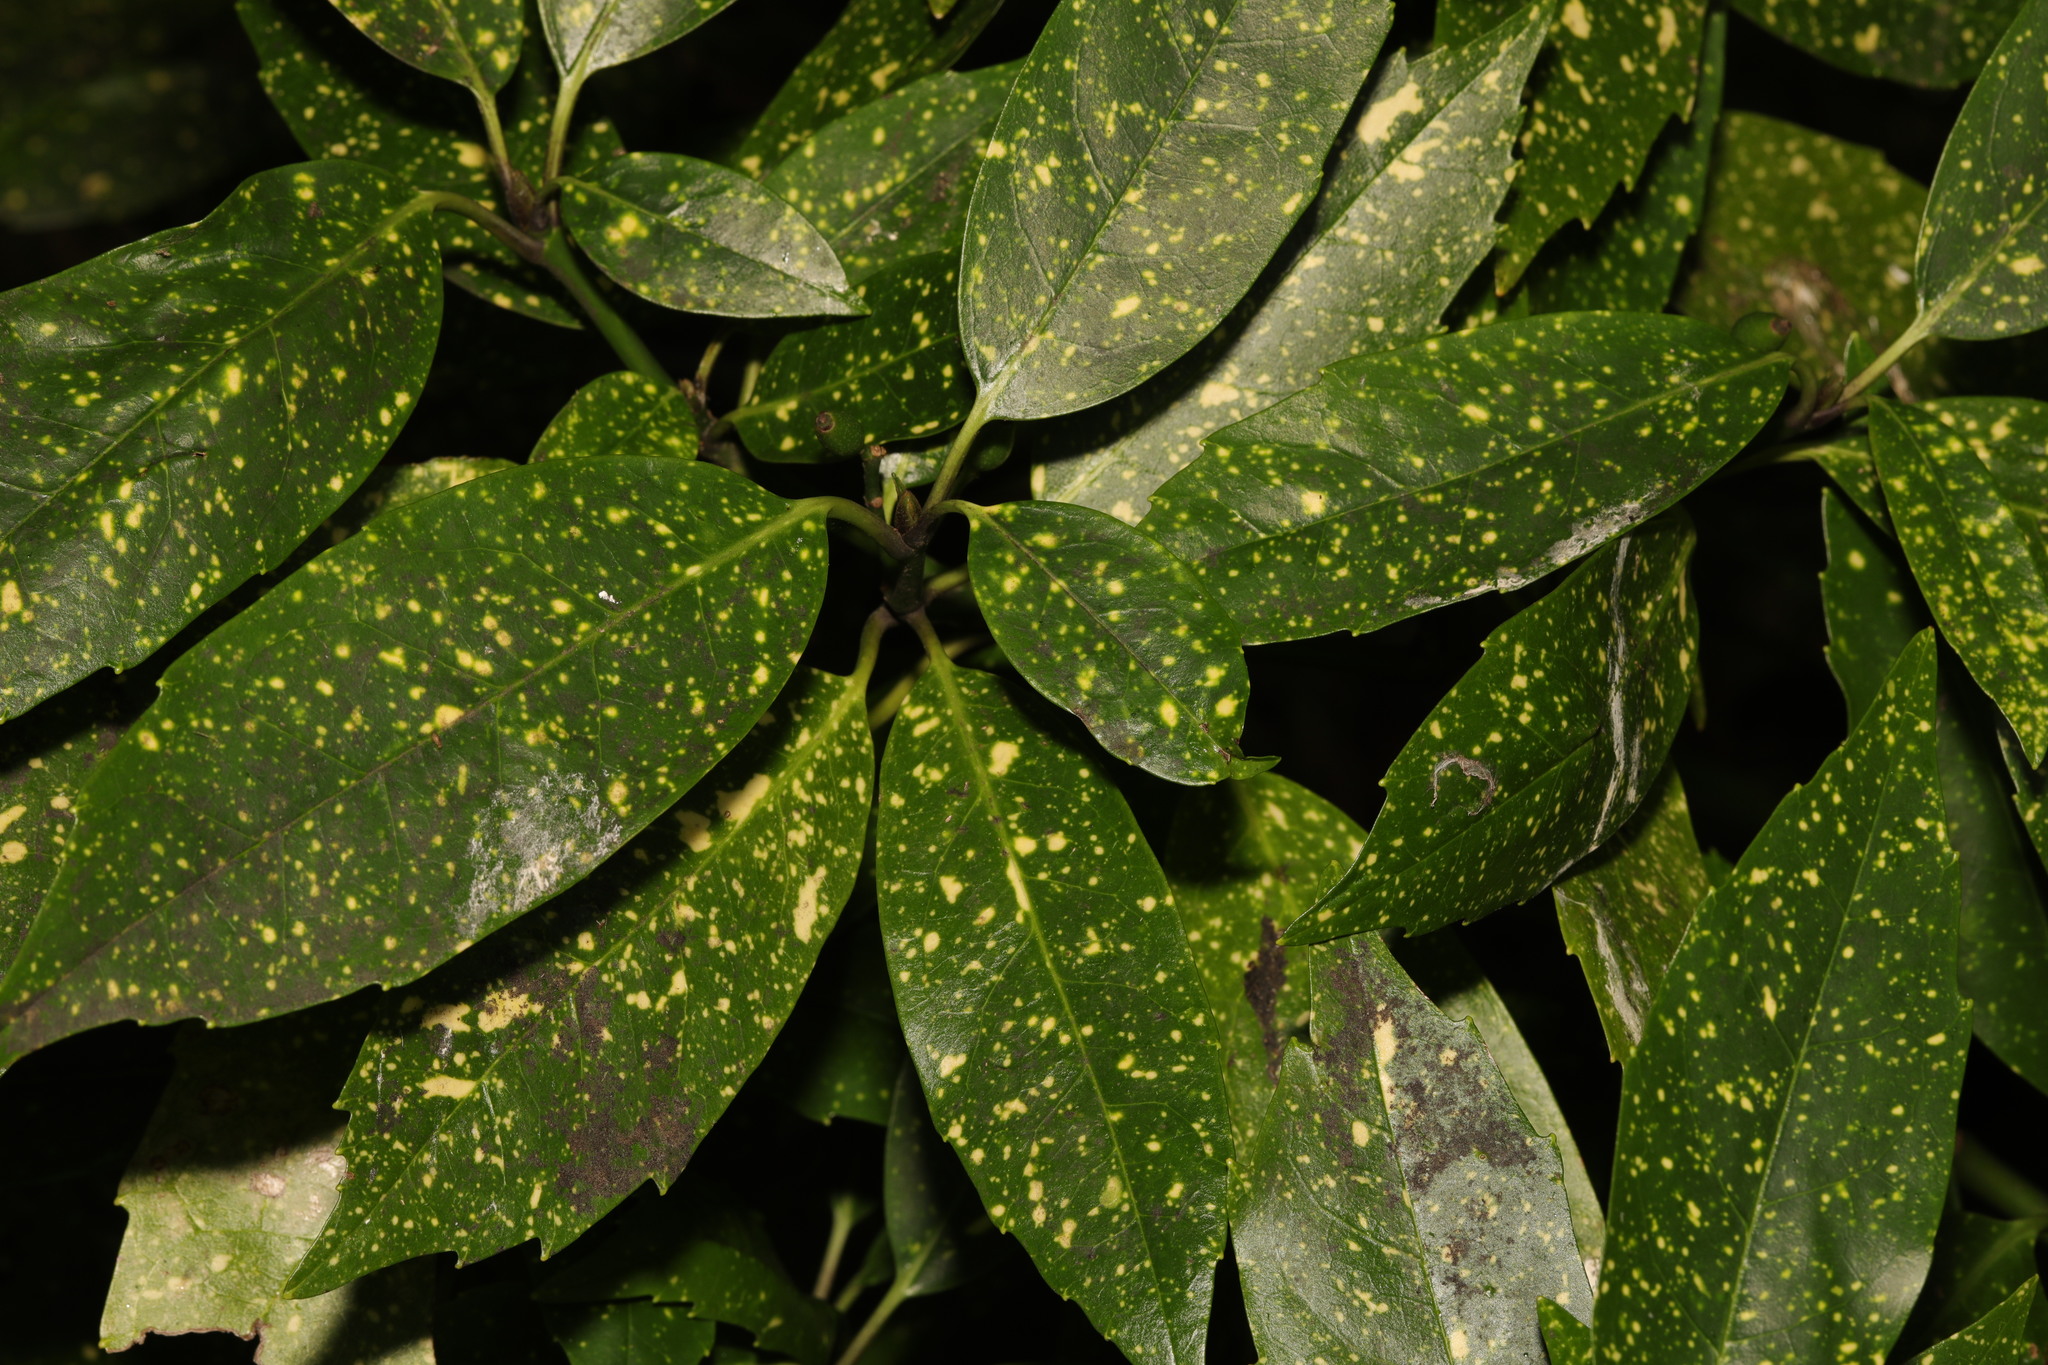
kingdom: Plantae
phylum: Tracheophyta
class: Magnoliopsida
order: Garryales
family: Garryaceae
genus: Aucuba
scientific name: Aucuba japonica
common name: Spotted-laurel
